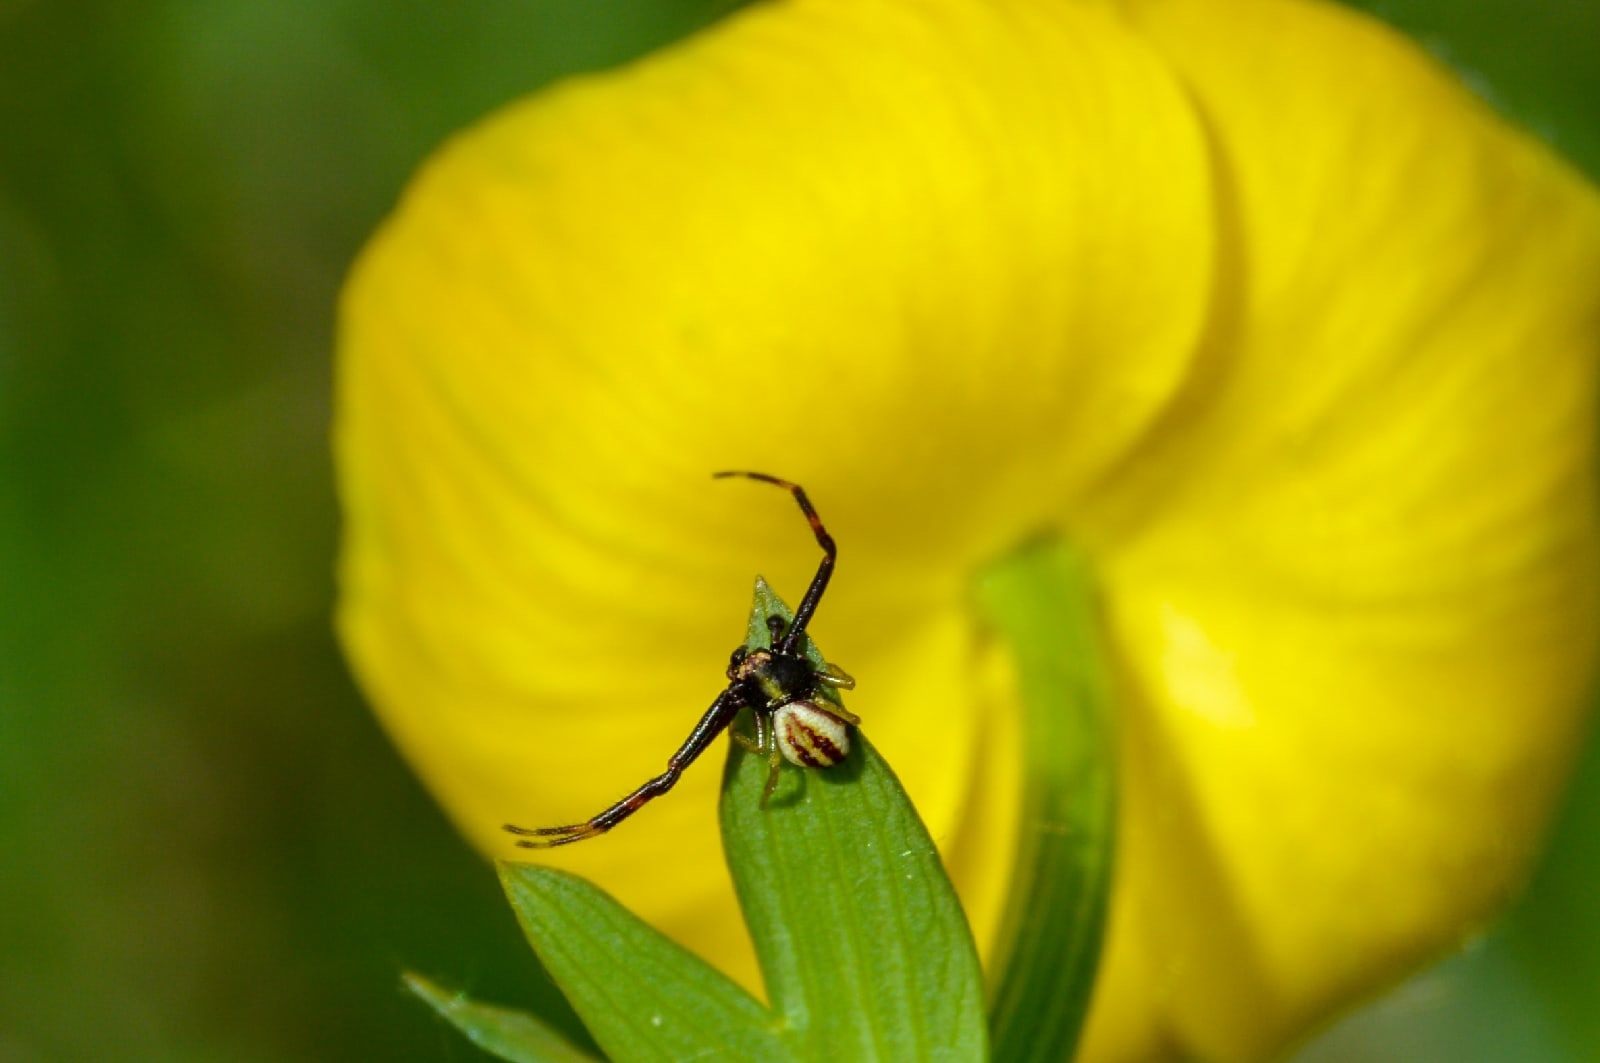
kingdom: Animalia
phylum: Arthropoda
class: Arachnida
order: Araneae
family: Thomisidae
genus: Misumena
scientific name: Misumena vatia
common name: Goldenrod crab spider
